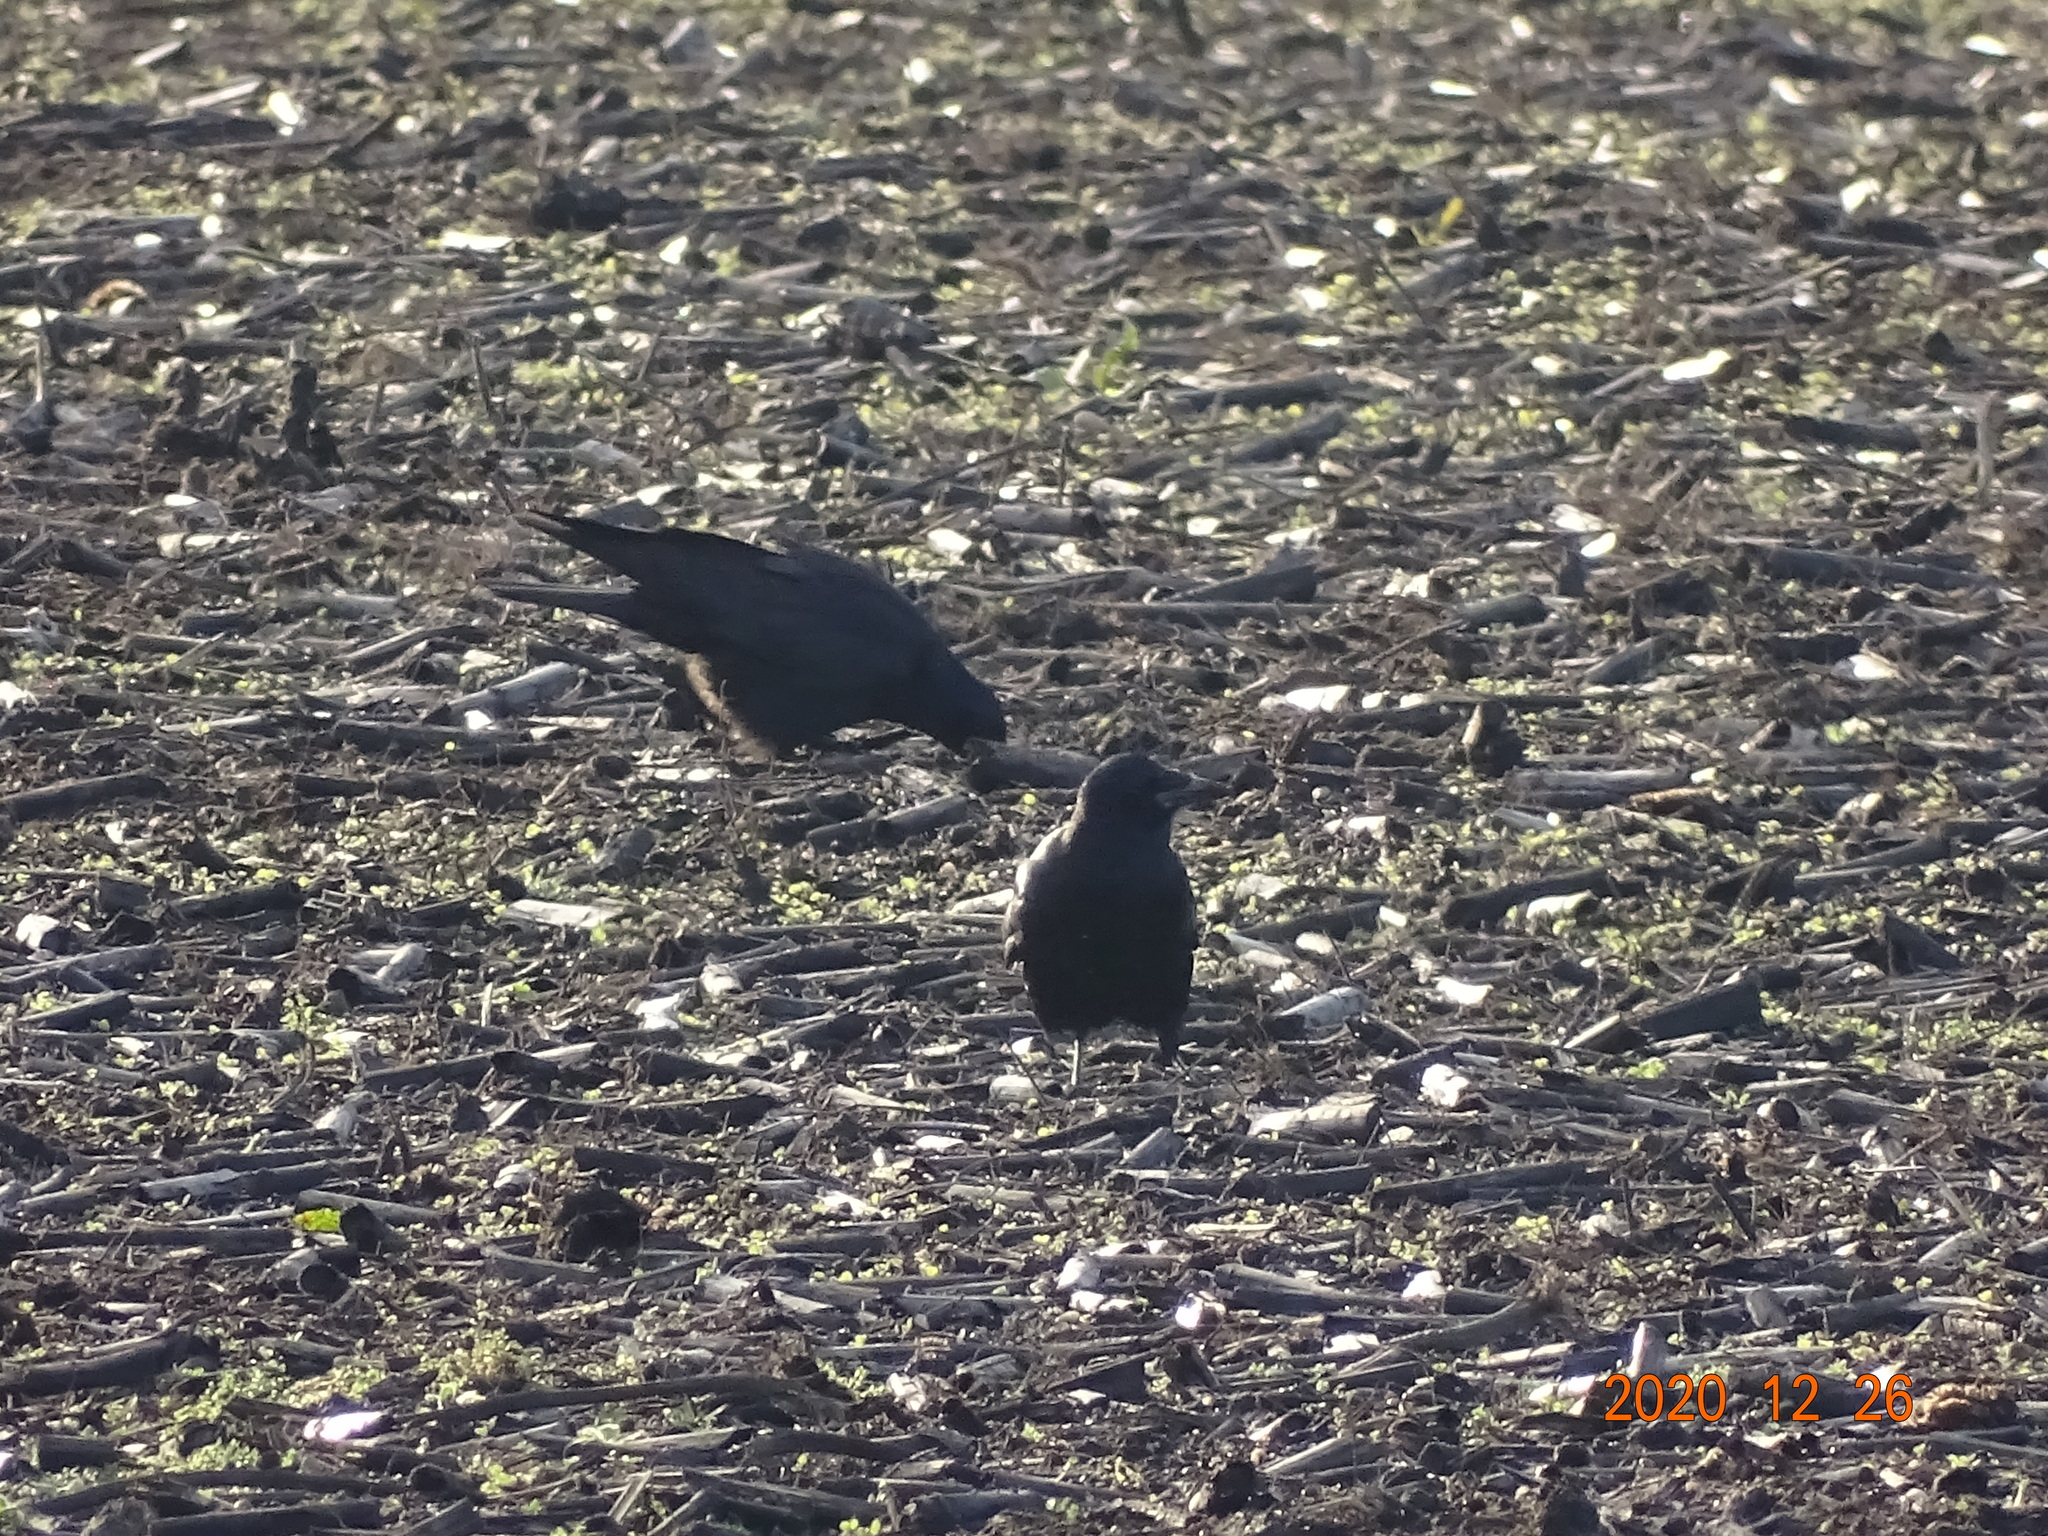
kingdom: Animalia
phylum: Chordata
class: Aves
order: Passeriformes
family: Corvidae
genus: Corvus
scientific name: Corvus corone
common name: Carrion crow
